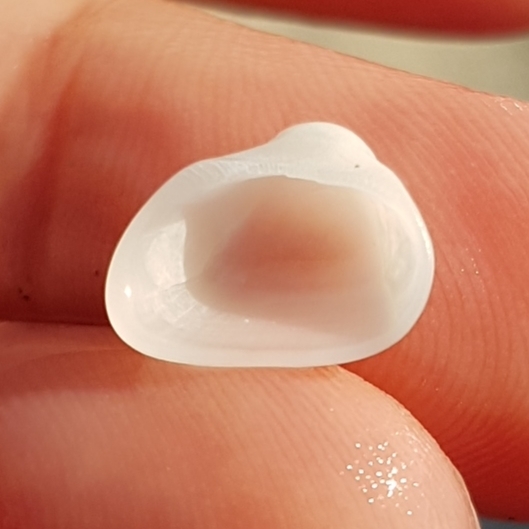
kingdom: Animalia
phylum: Mollusca
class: Bivalvia
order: Arcida
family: Noetiidae
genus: Striarca
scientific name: Striarca lactea
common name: Milky-white ark
